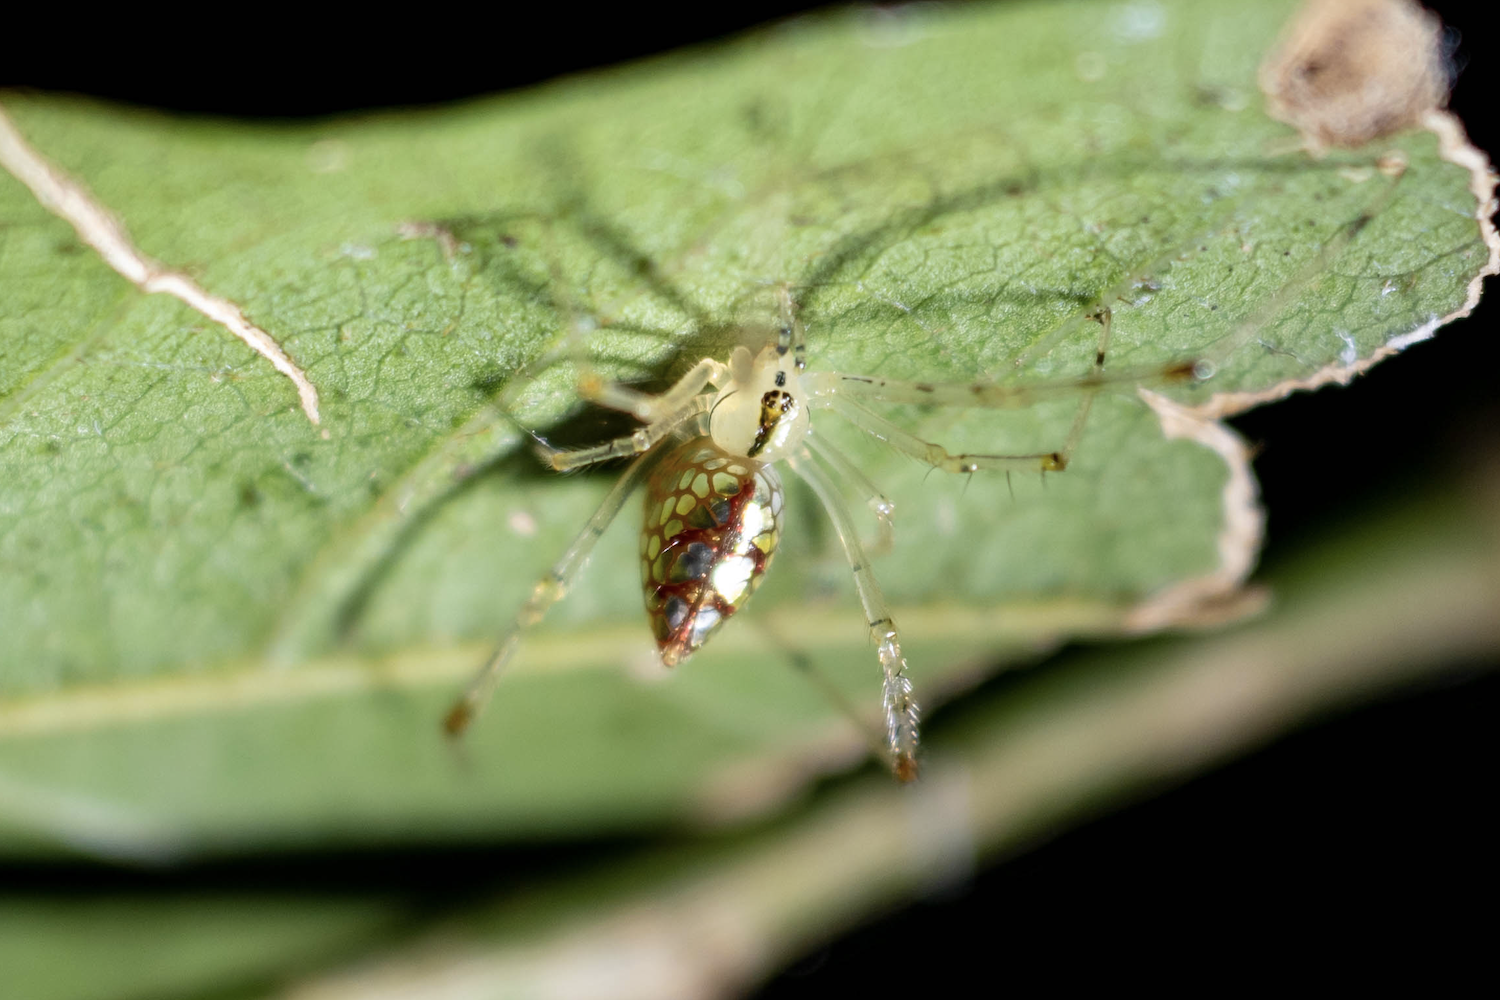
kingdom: Animalia
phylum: Arthropoda
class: Arachnida
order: Araneae
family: Theridiidae
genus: Thwaitesia
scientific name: Thwaitesia margaritifera
